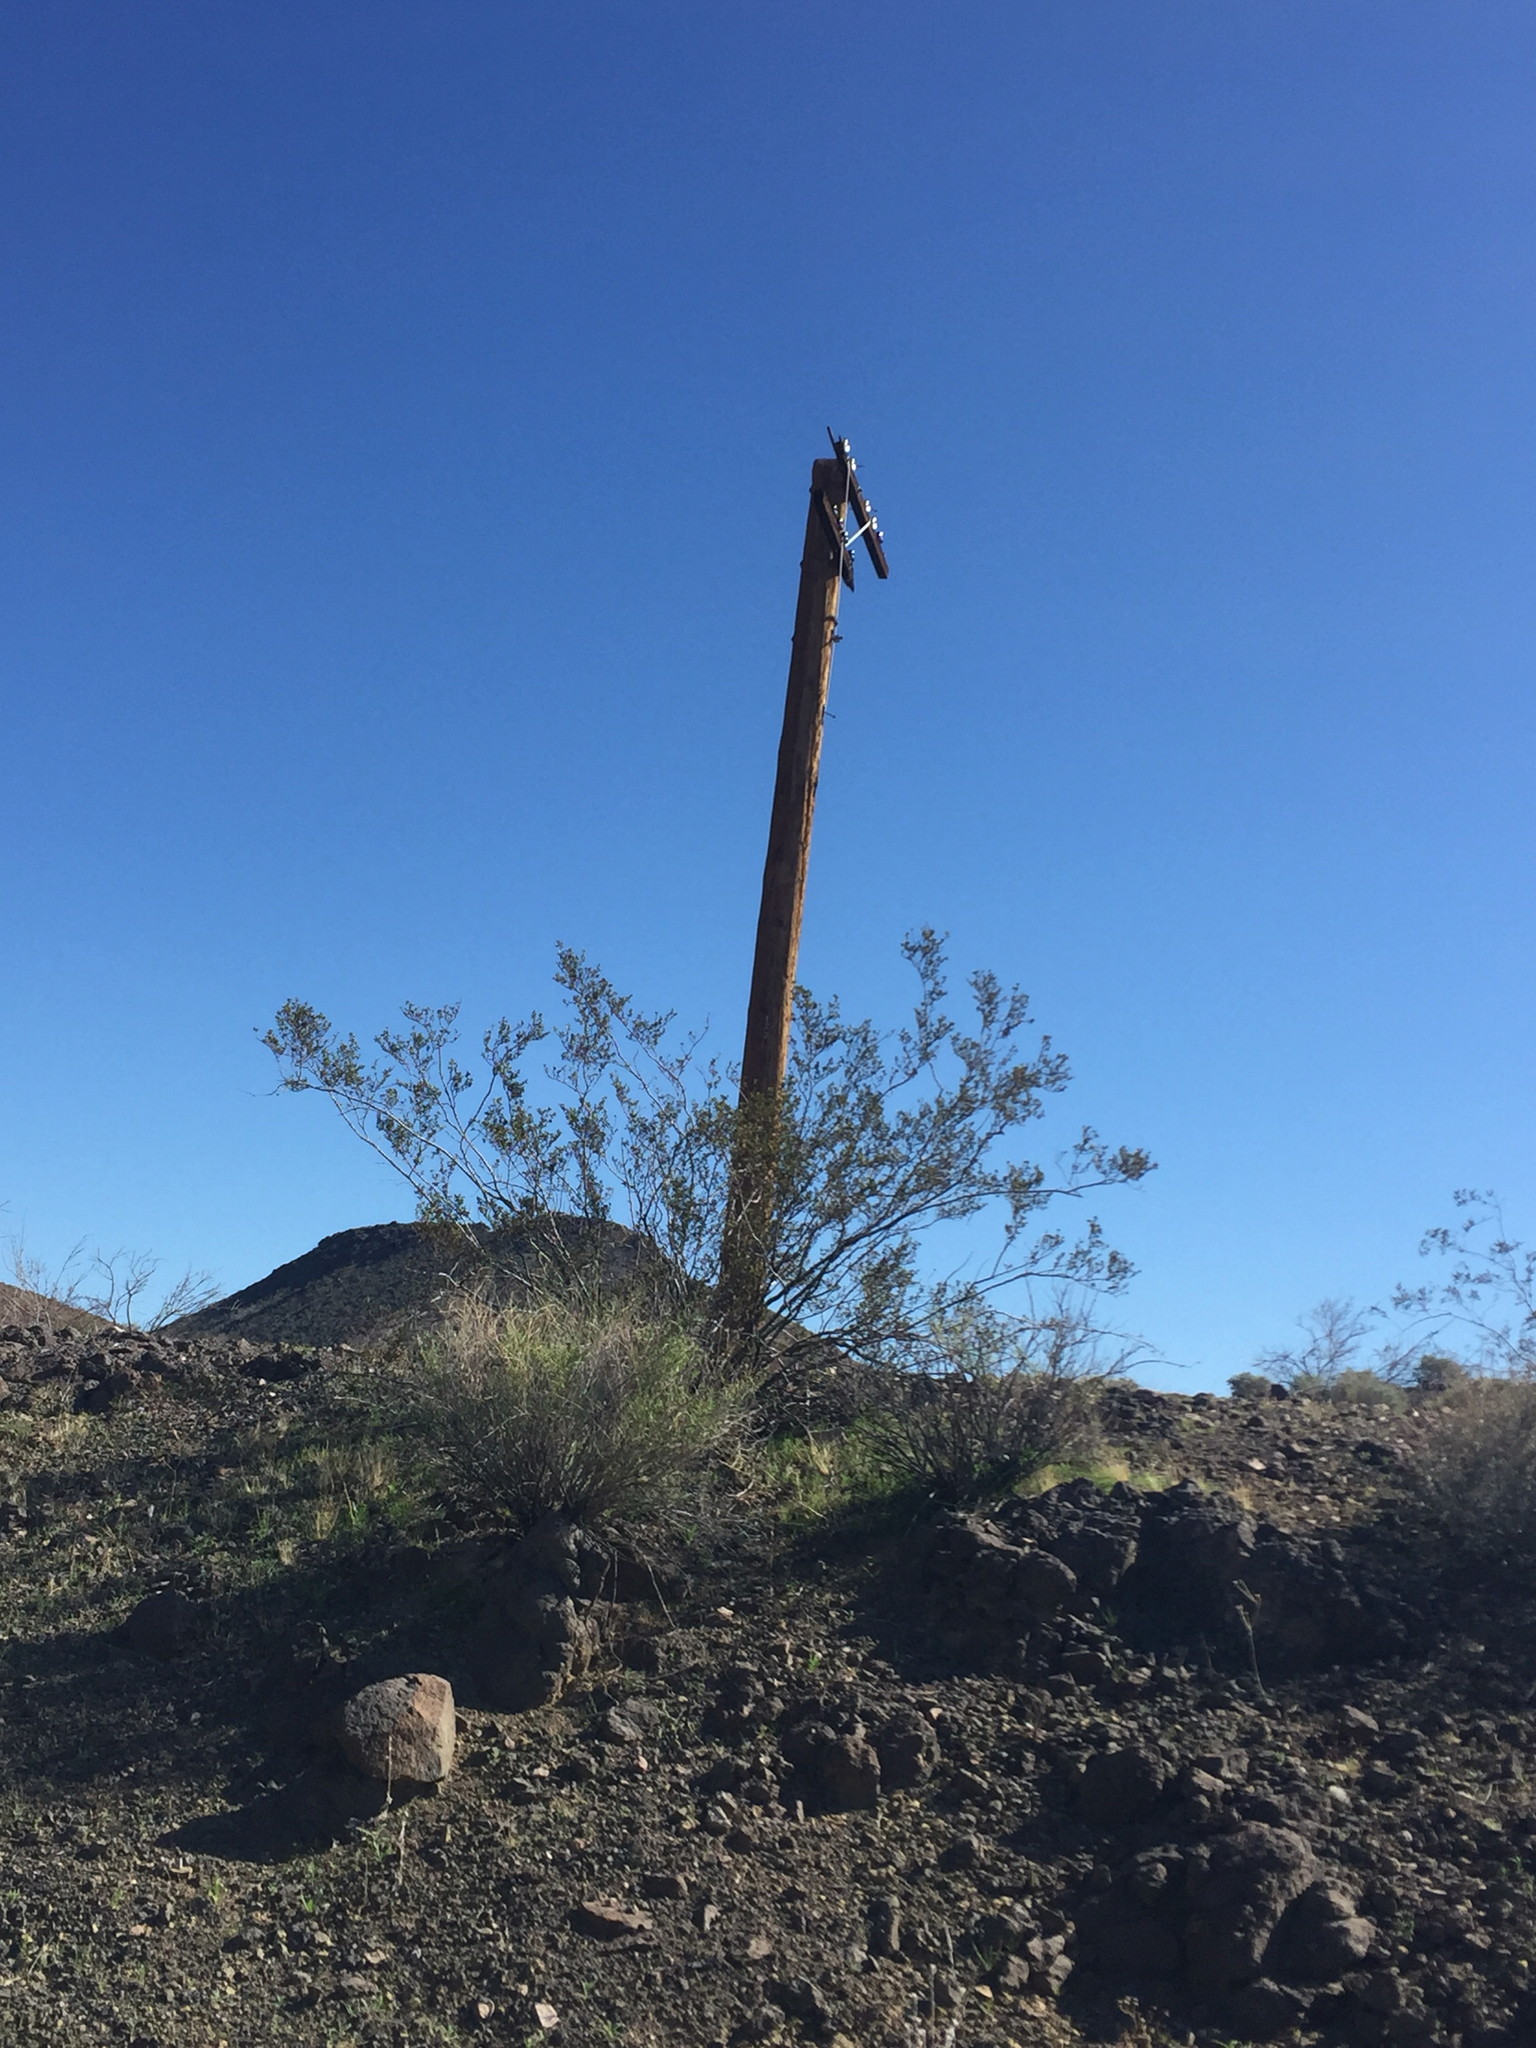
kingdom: Plantae
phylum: Tracheophyta
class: Magnoliopsida
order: Zygophyllales
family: Zygophyllaceae
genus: Larrea
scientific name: Larrea tridentata
